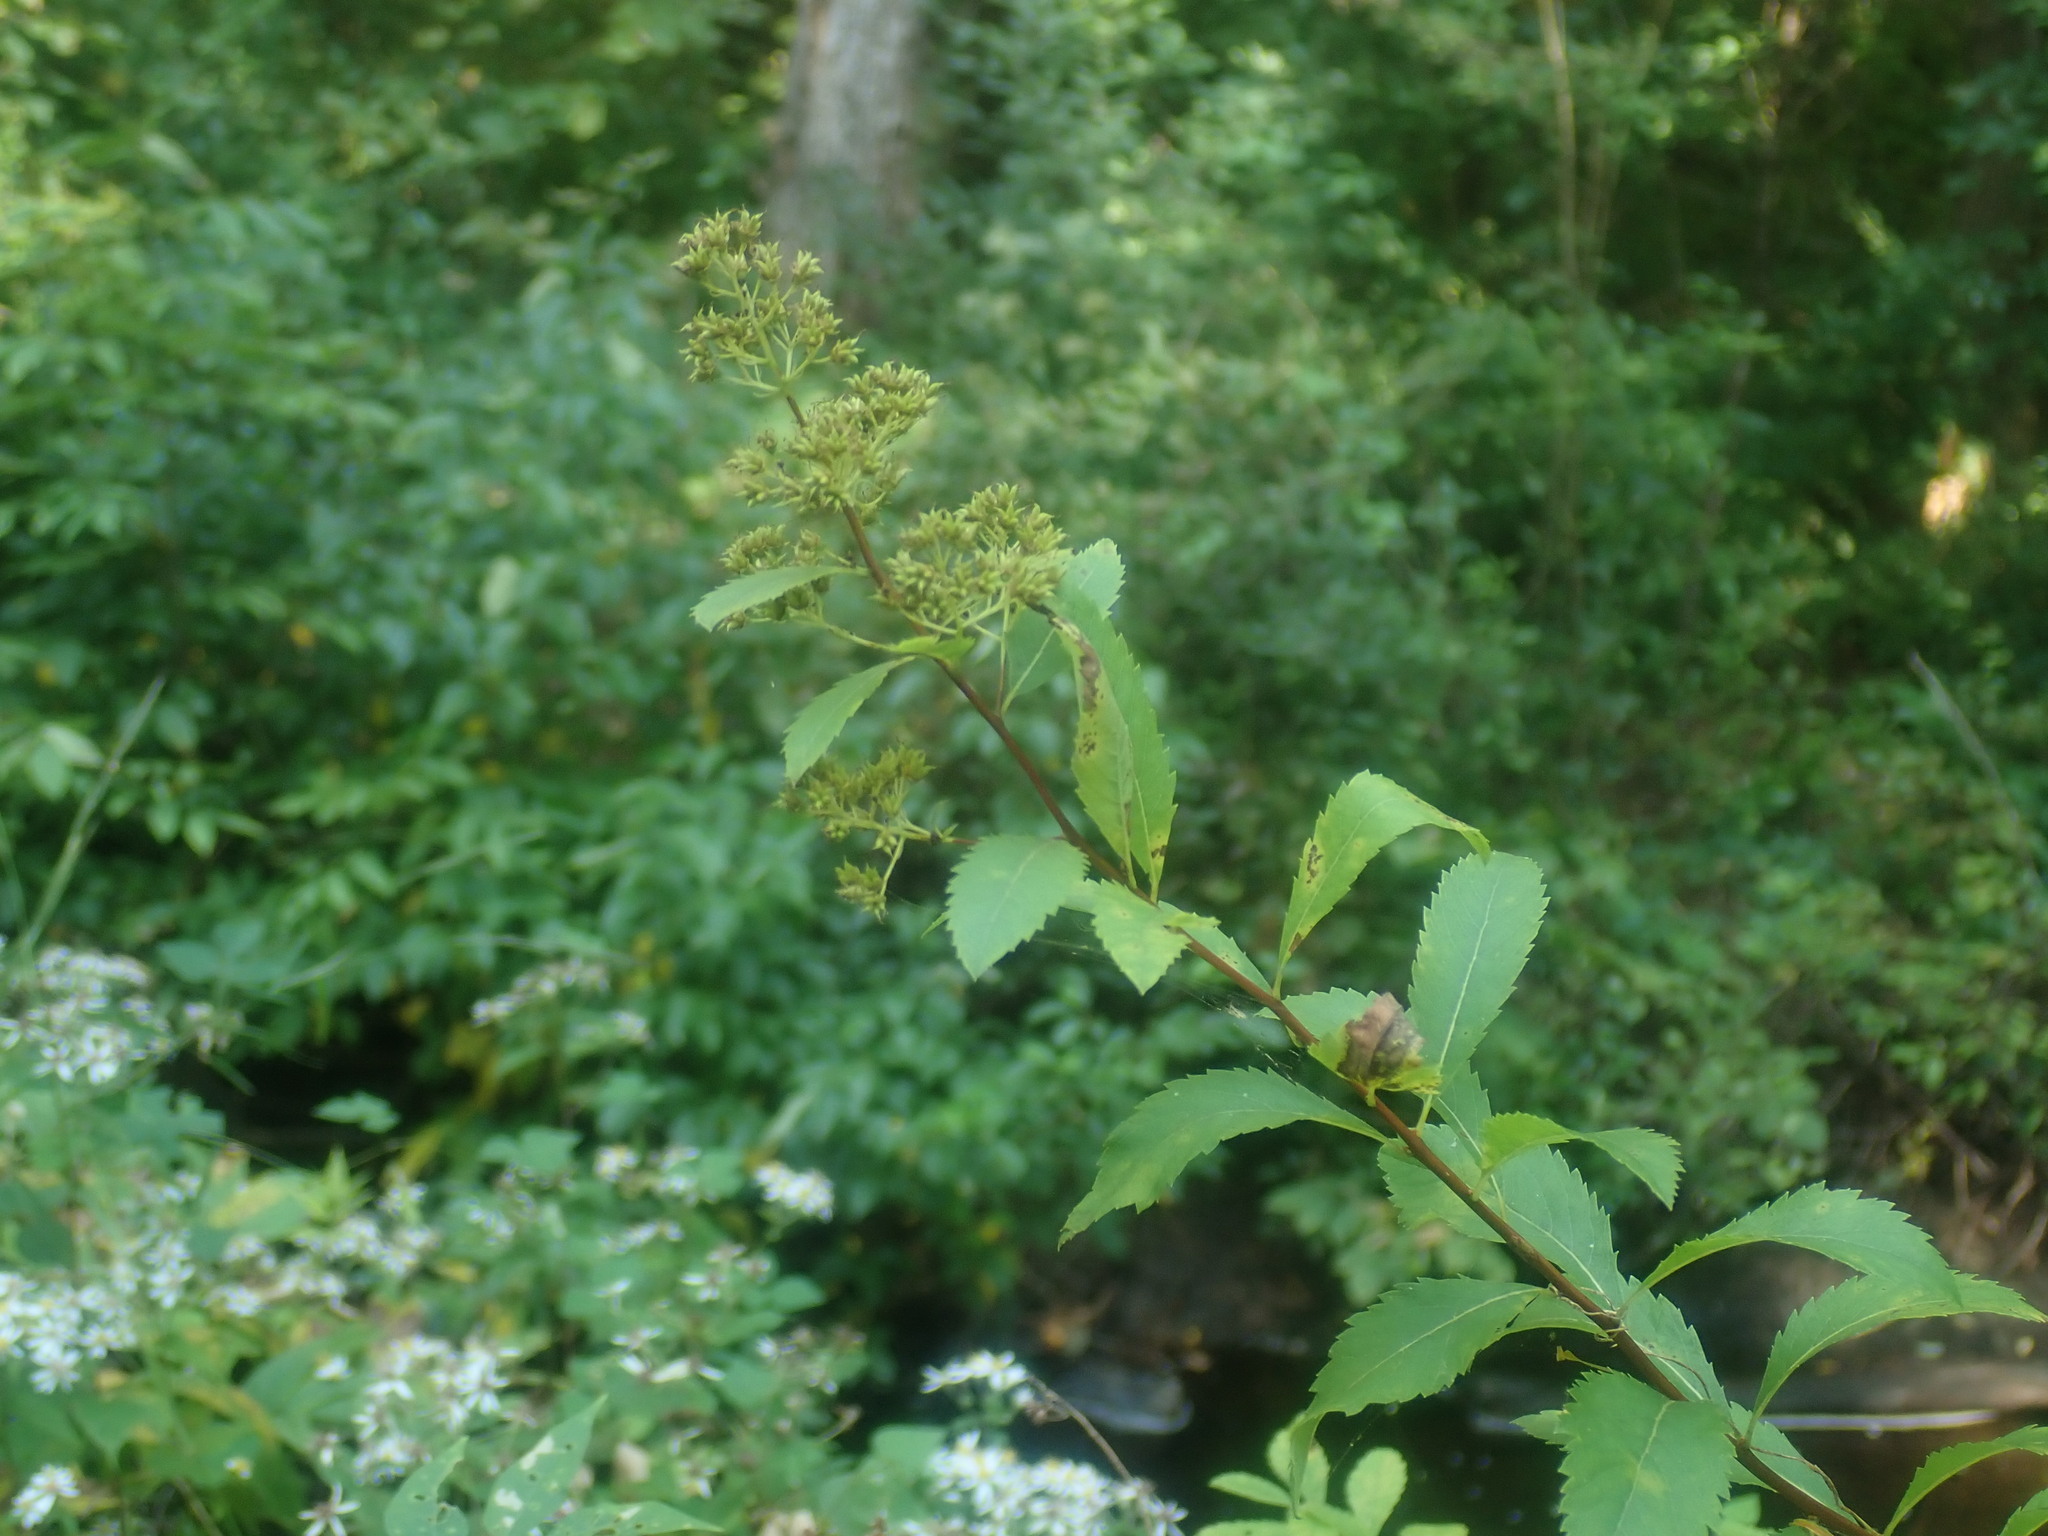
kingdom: Plantae
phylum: Tracheophyta
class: Magnoliopsida
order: Rosales
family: Rosaceae
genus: Spiraea
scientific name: Spiraea alba
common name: Pale bridewort
